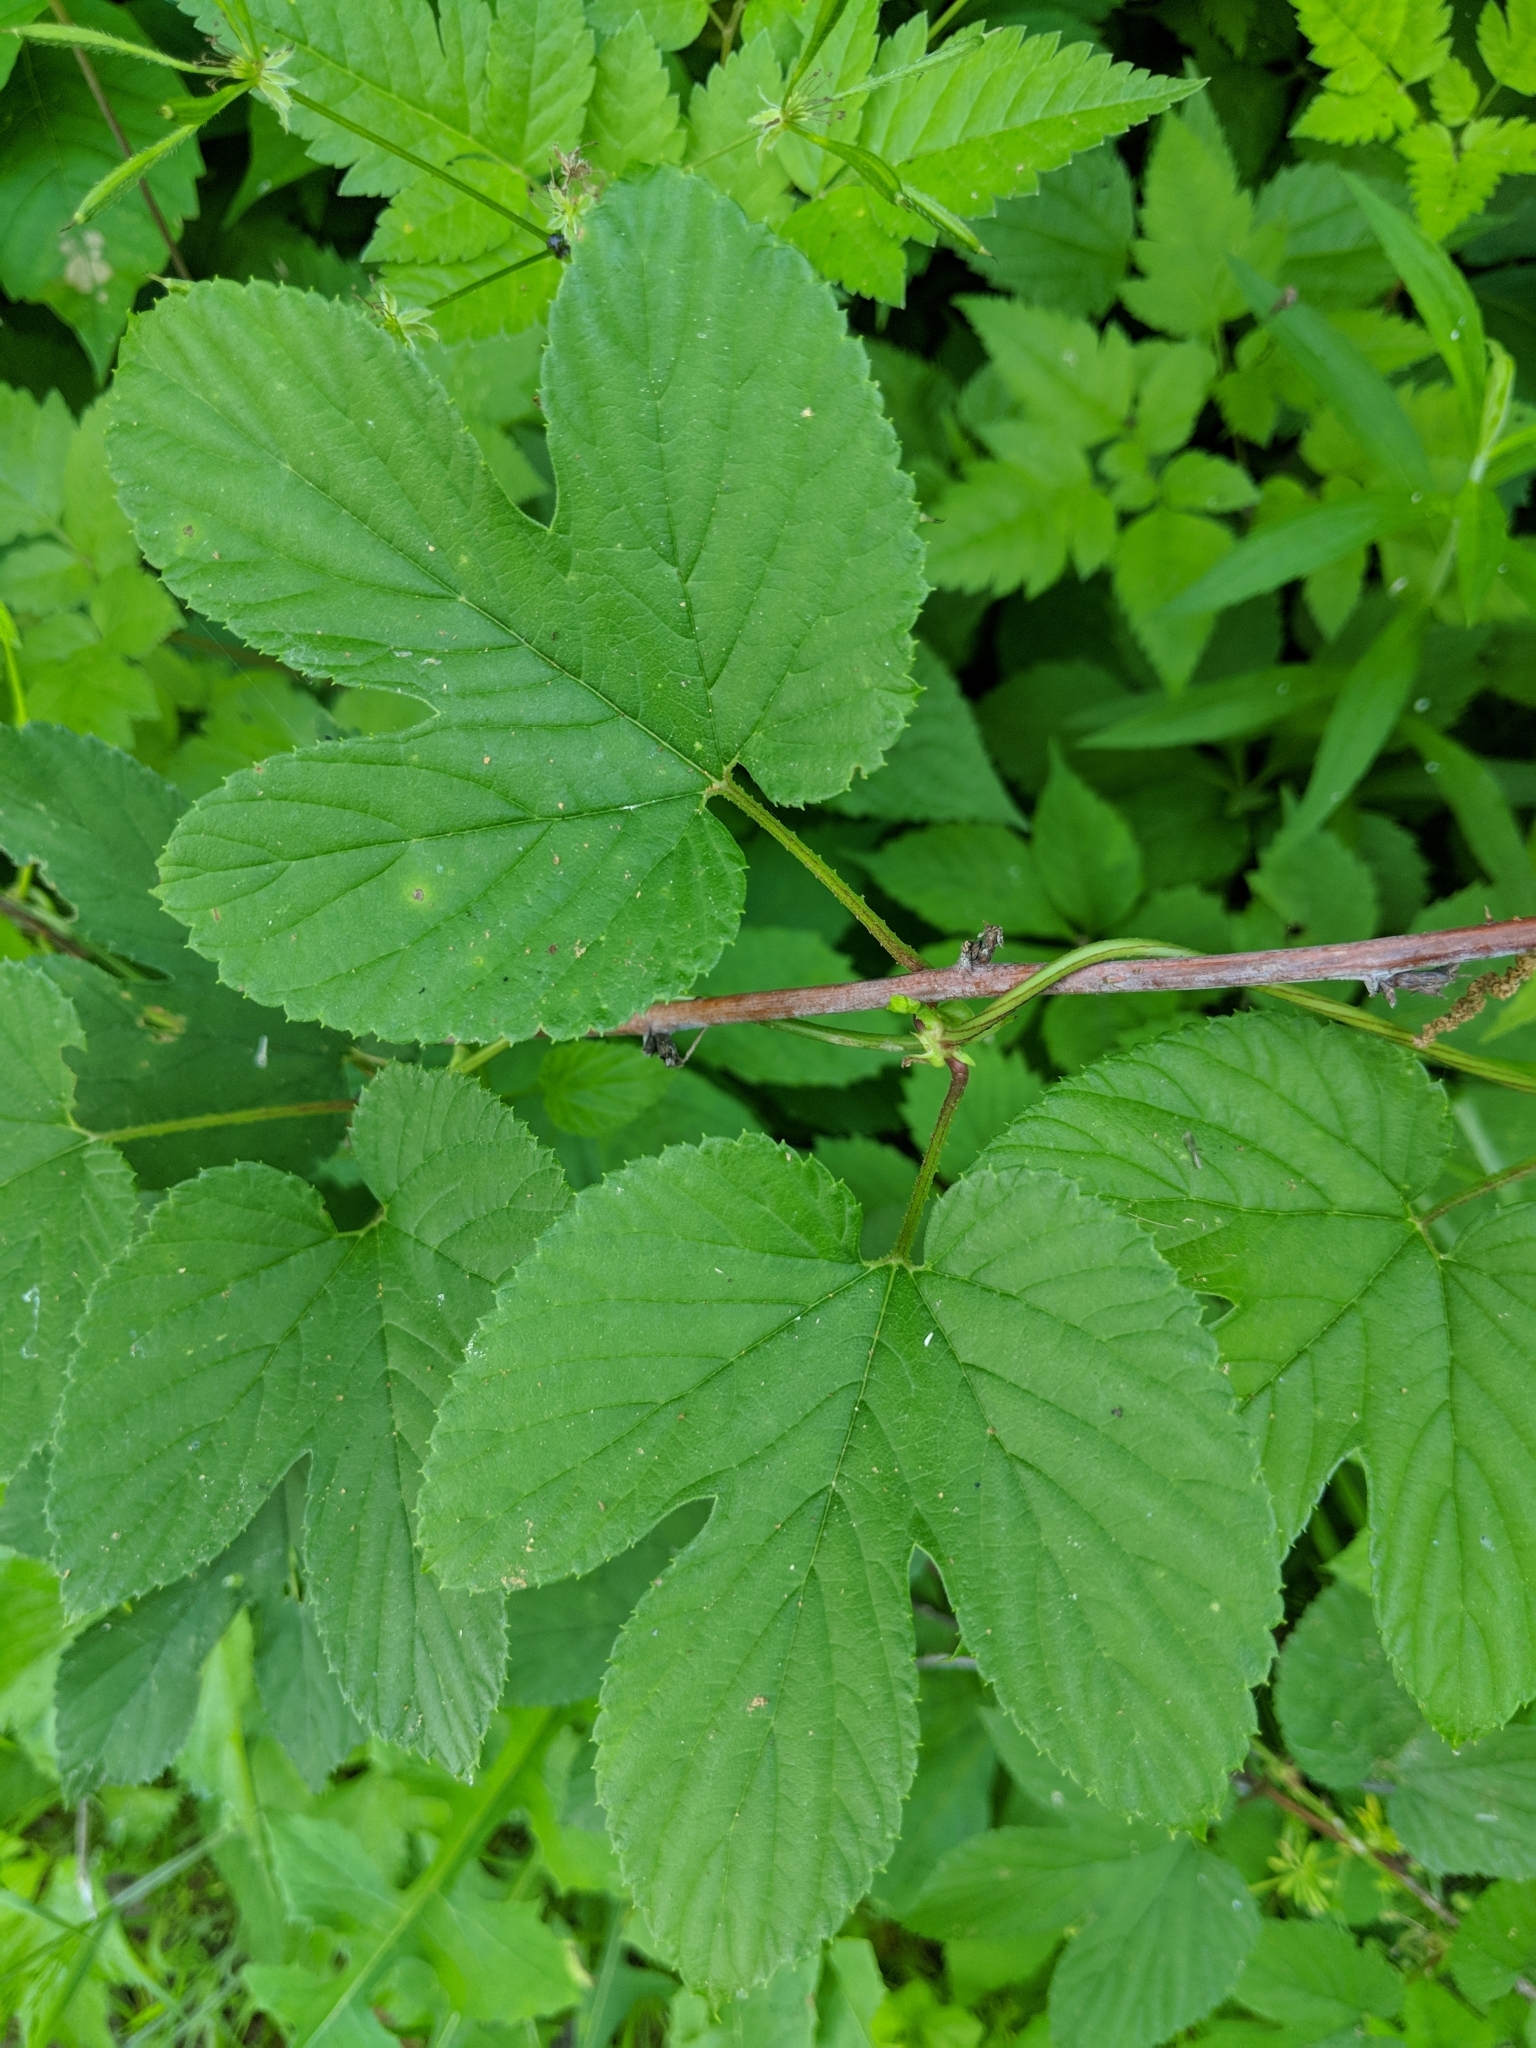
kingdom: Plantae
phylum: Tracheophyta
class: Magnoliopsida
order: Rosales
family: Cannabaceae
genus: Humulus
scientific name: Humulus lupulus
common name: Hop
